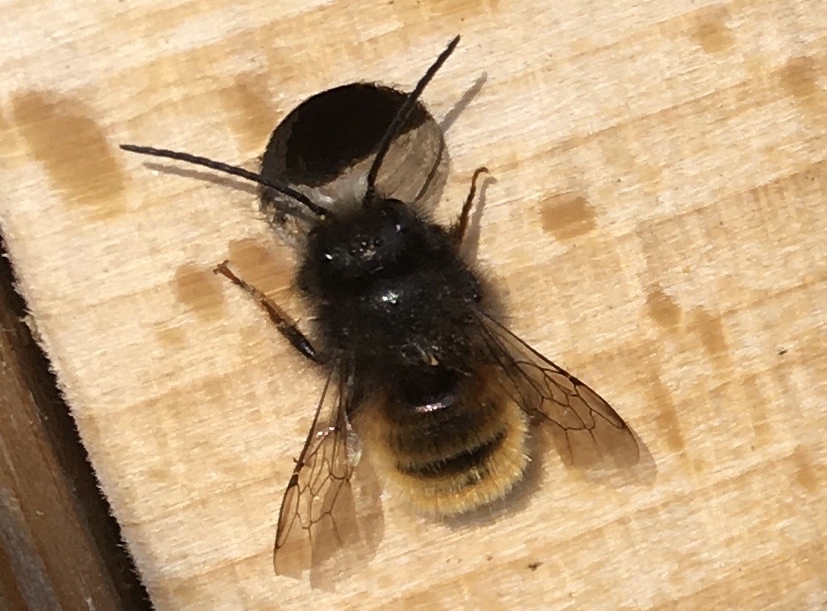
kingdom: Animalia
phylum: Arthropoda
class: Insecta
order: Hymenoptera
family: Megachilidae
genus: Osmia
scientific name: Osmia cornuta
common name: Mason bee
